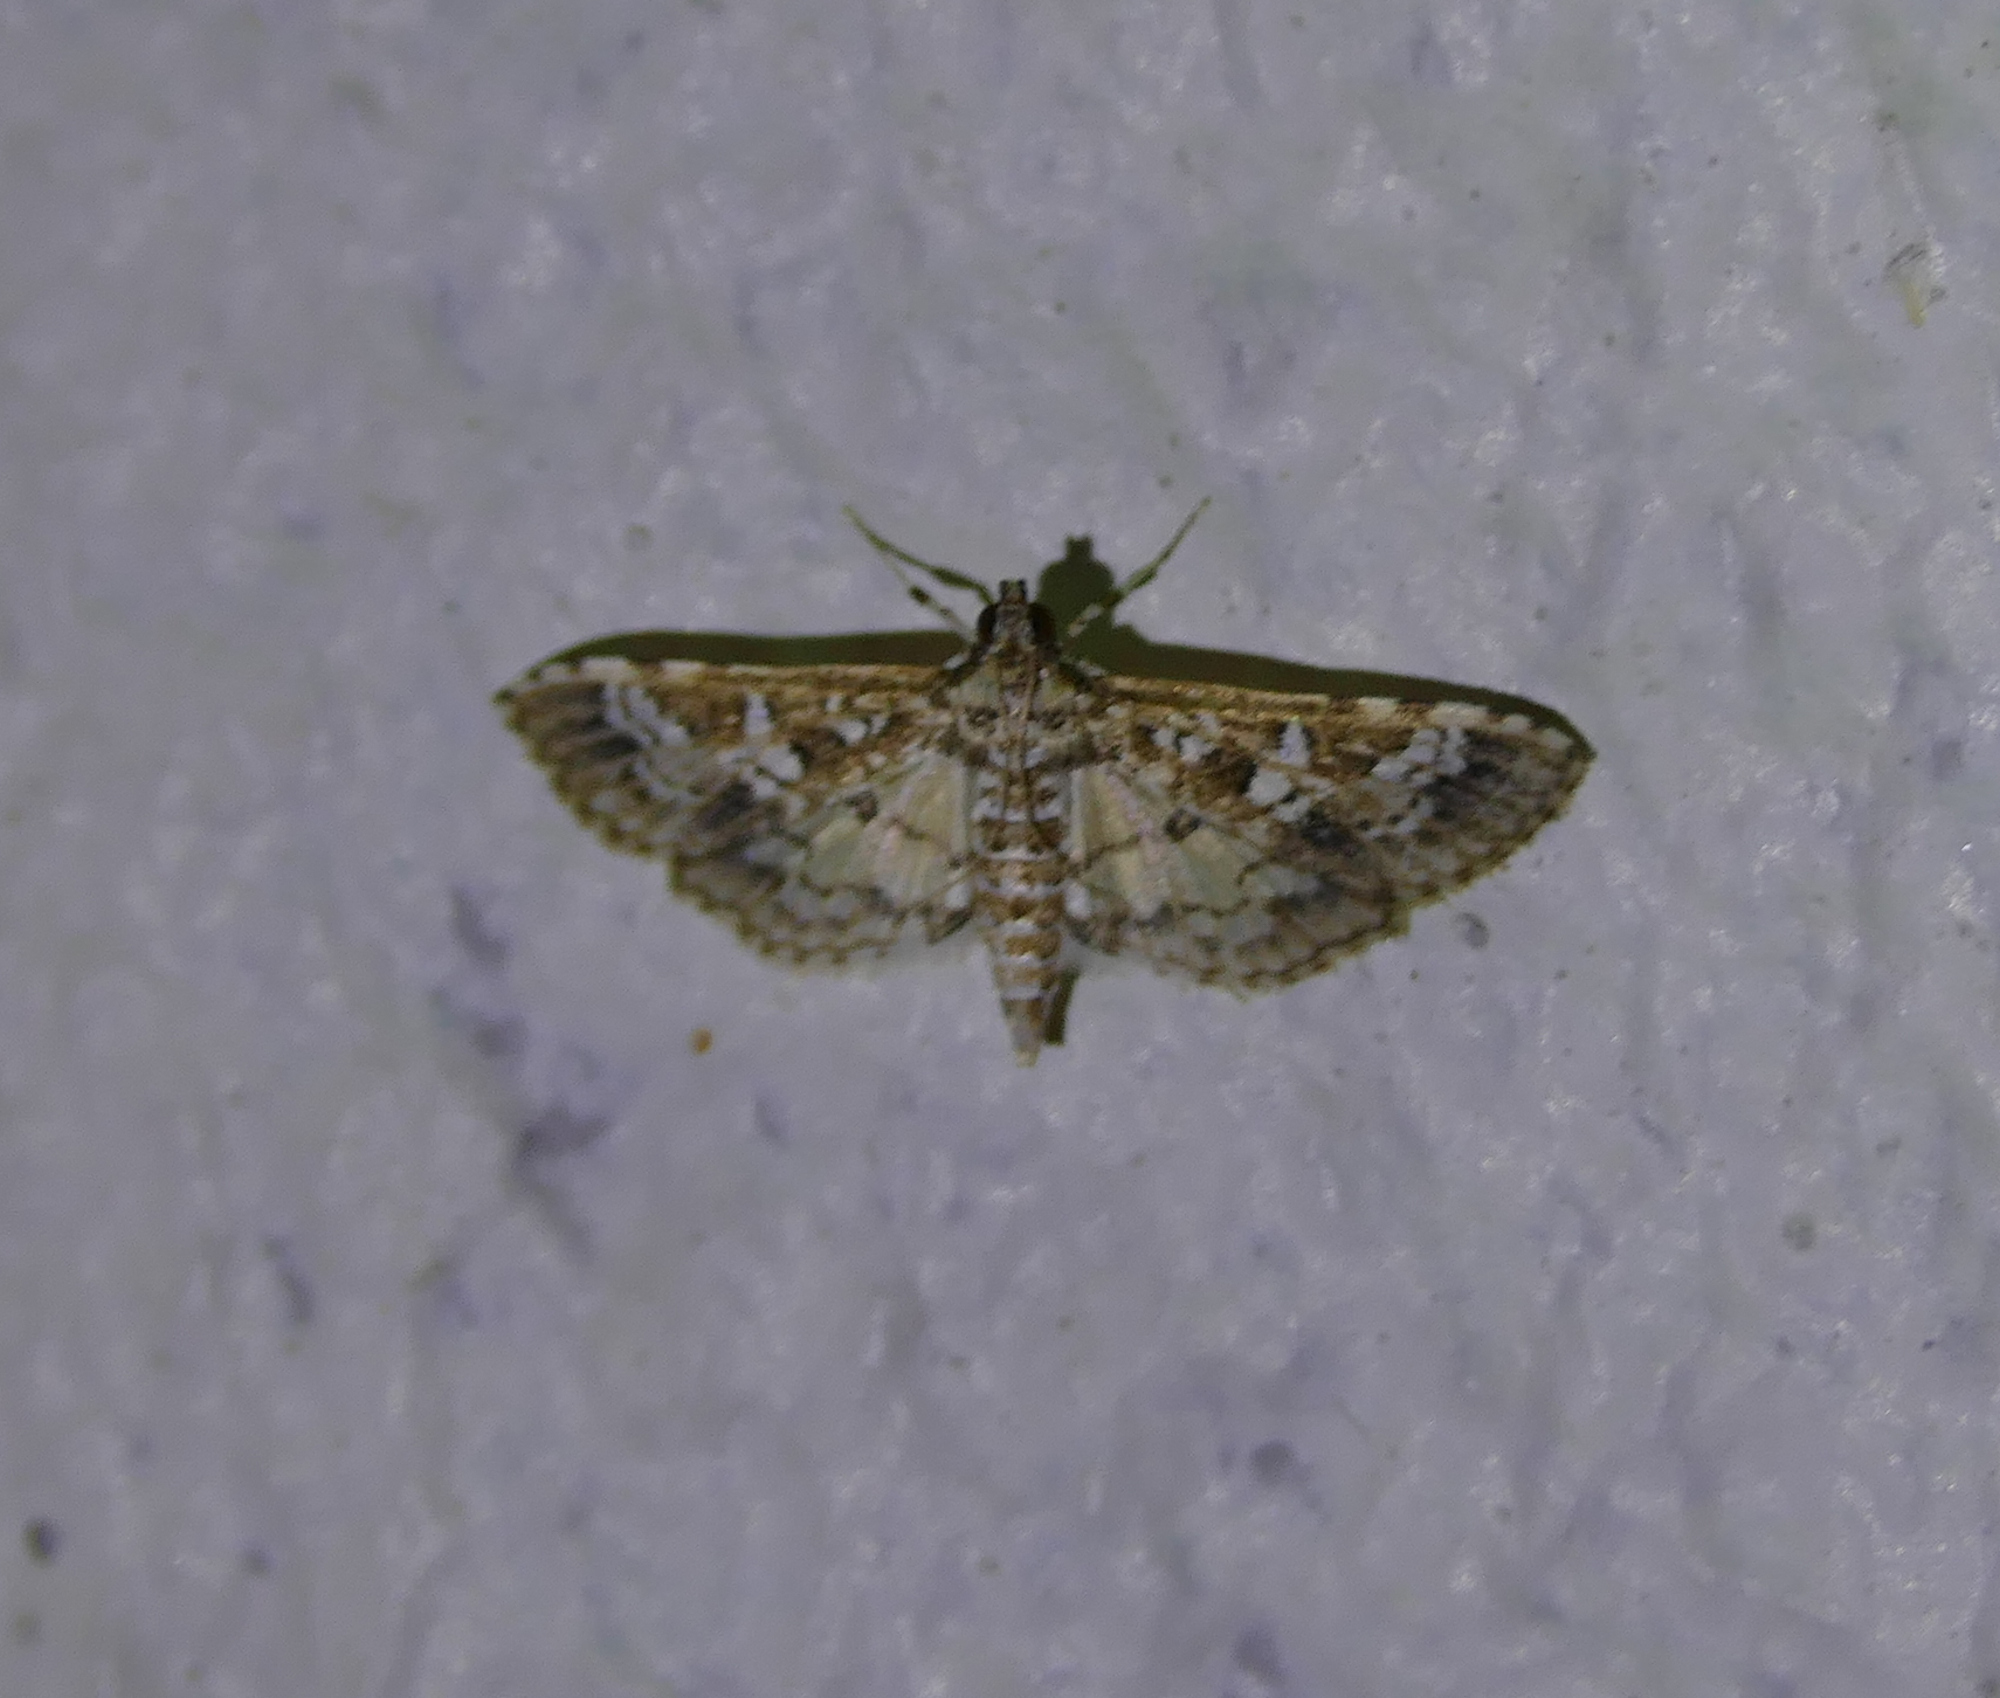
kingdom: Animalia
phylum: Arthropoda
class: Insecta
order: Lepidoptera
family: Crambidae
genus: Samea
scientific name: Samea multiplicalis
